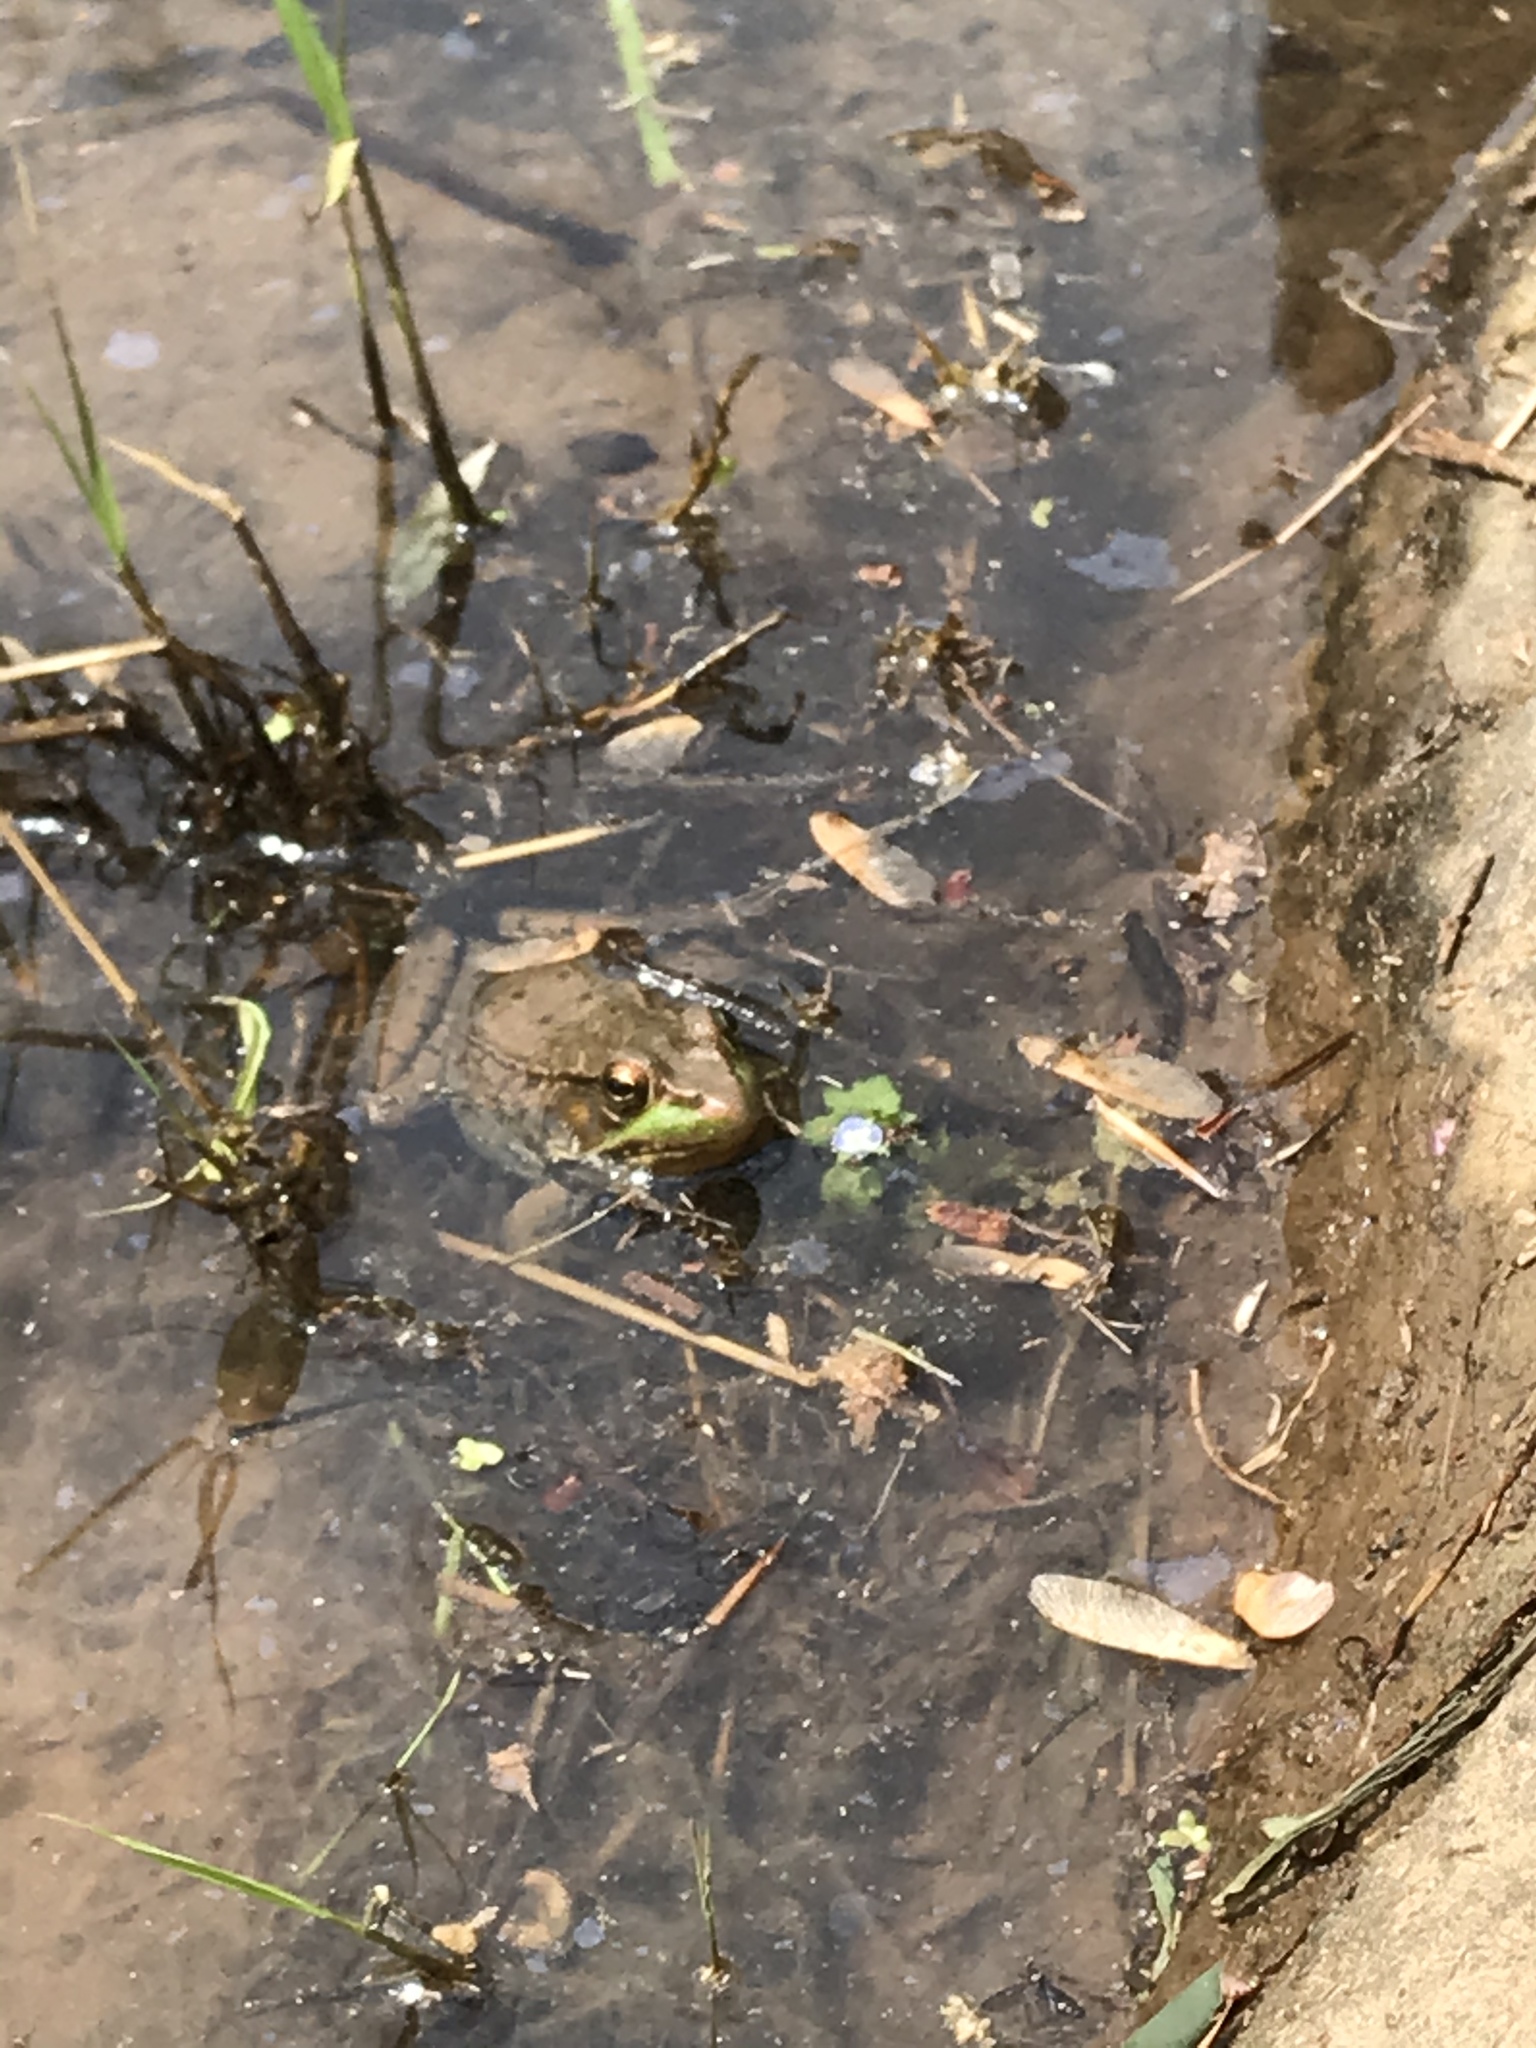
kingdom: Animalia
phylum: Chordata
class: Amphibia
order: Anura
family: Ranidae
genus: Lithobates
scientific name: Lithobates clamitans
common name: Green frog
